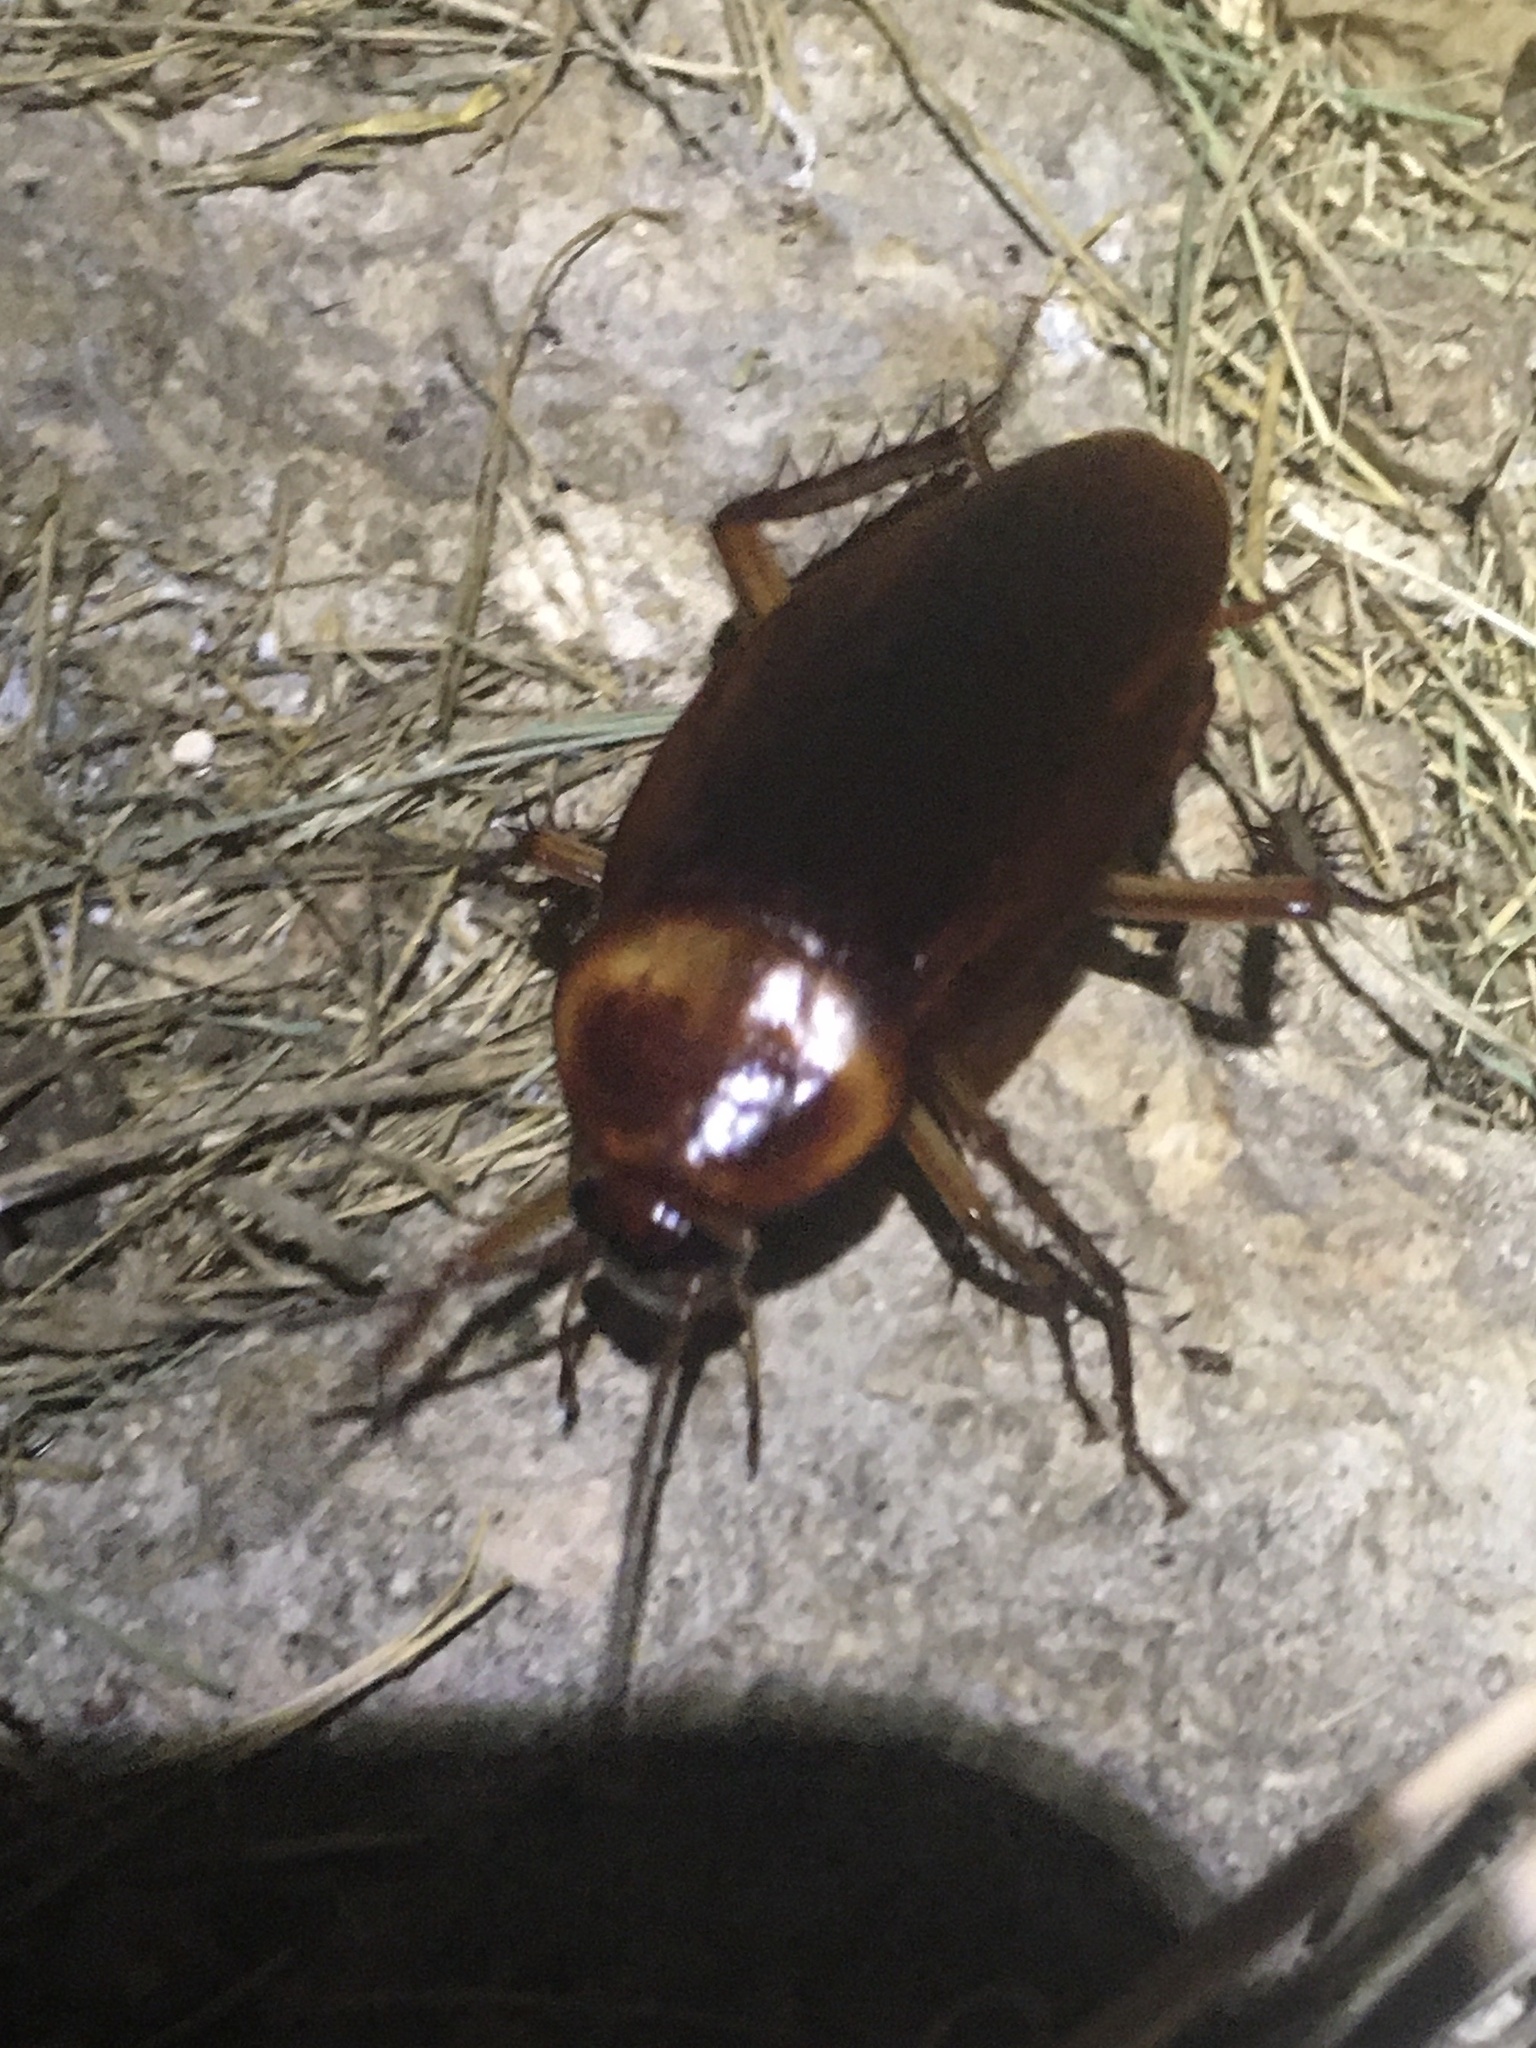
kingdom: Animalia
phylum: Arthropoda
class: Insecta
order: Blattodea
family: Blattidae
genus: Periplaneta
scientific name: Periplaneta americana
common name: American cockroach
